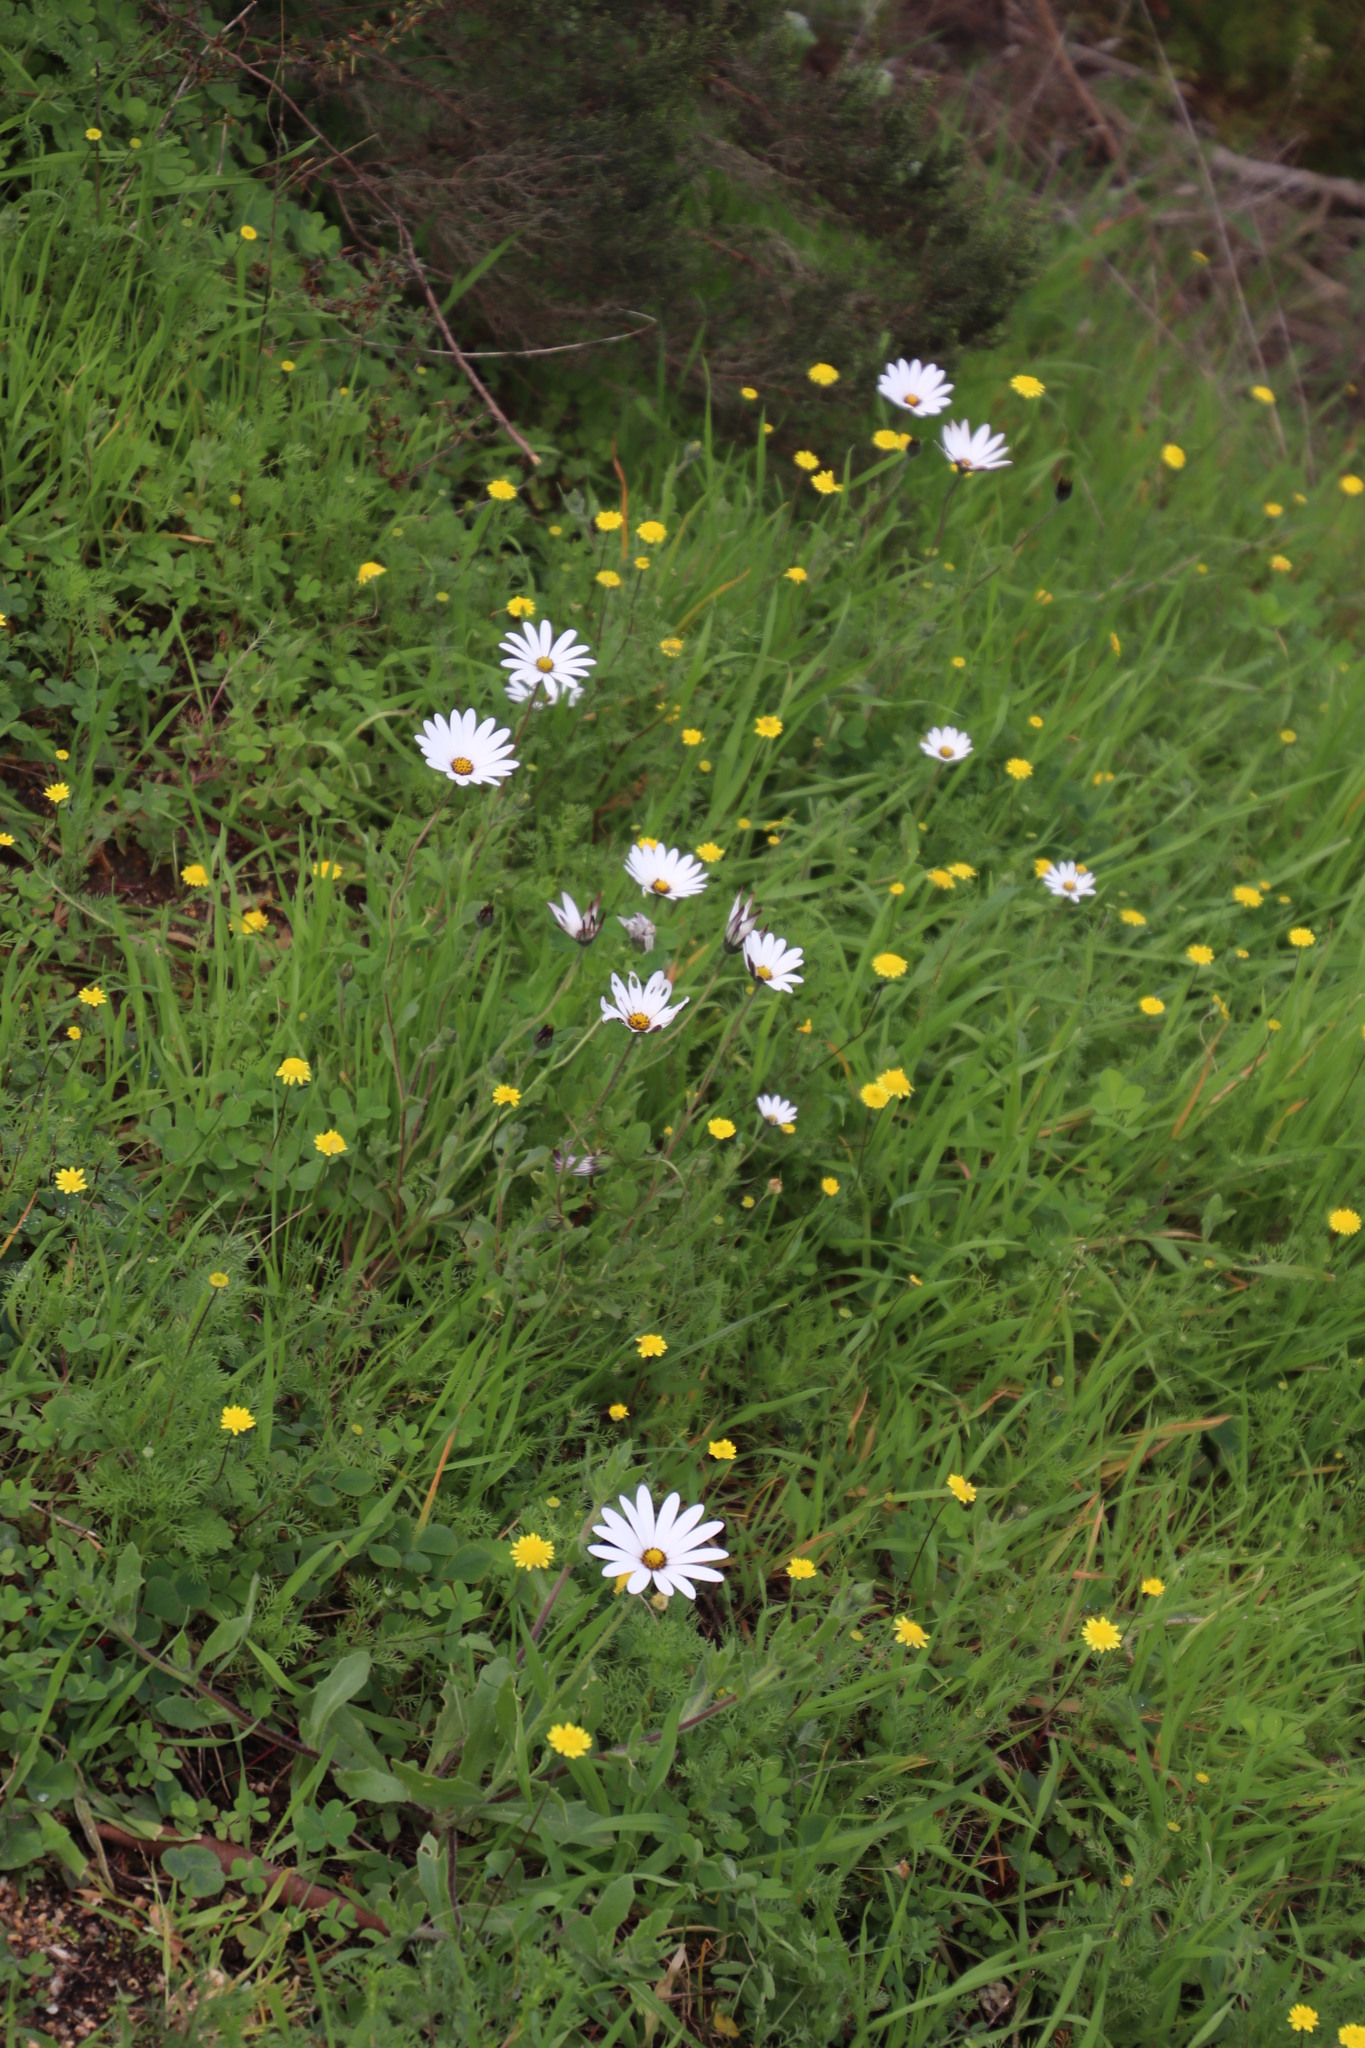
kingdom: Plantae
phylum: Tracheophyta
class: Magnoliopsida
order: Asterales
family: Asteraceae
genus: Dimorphotheca
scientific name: Dimorphotheca pluvialis
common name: Weather prophet
